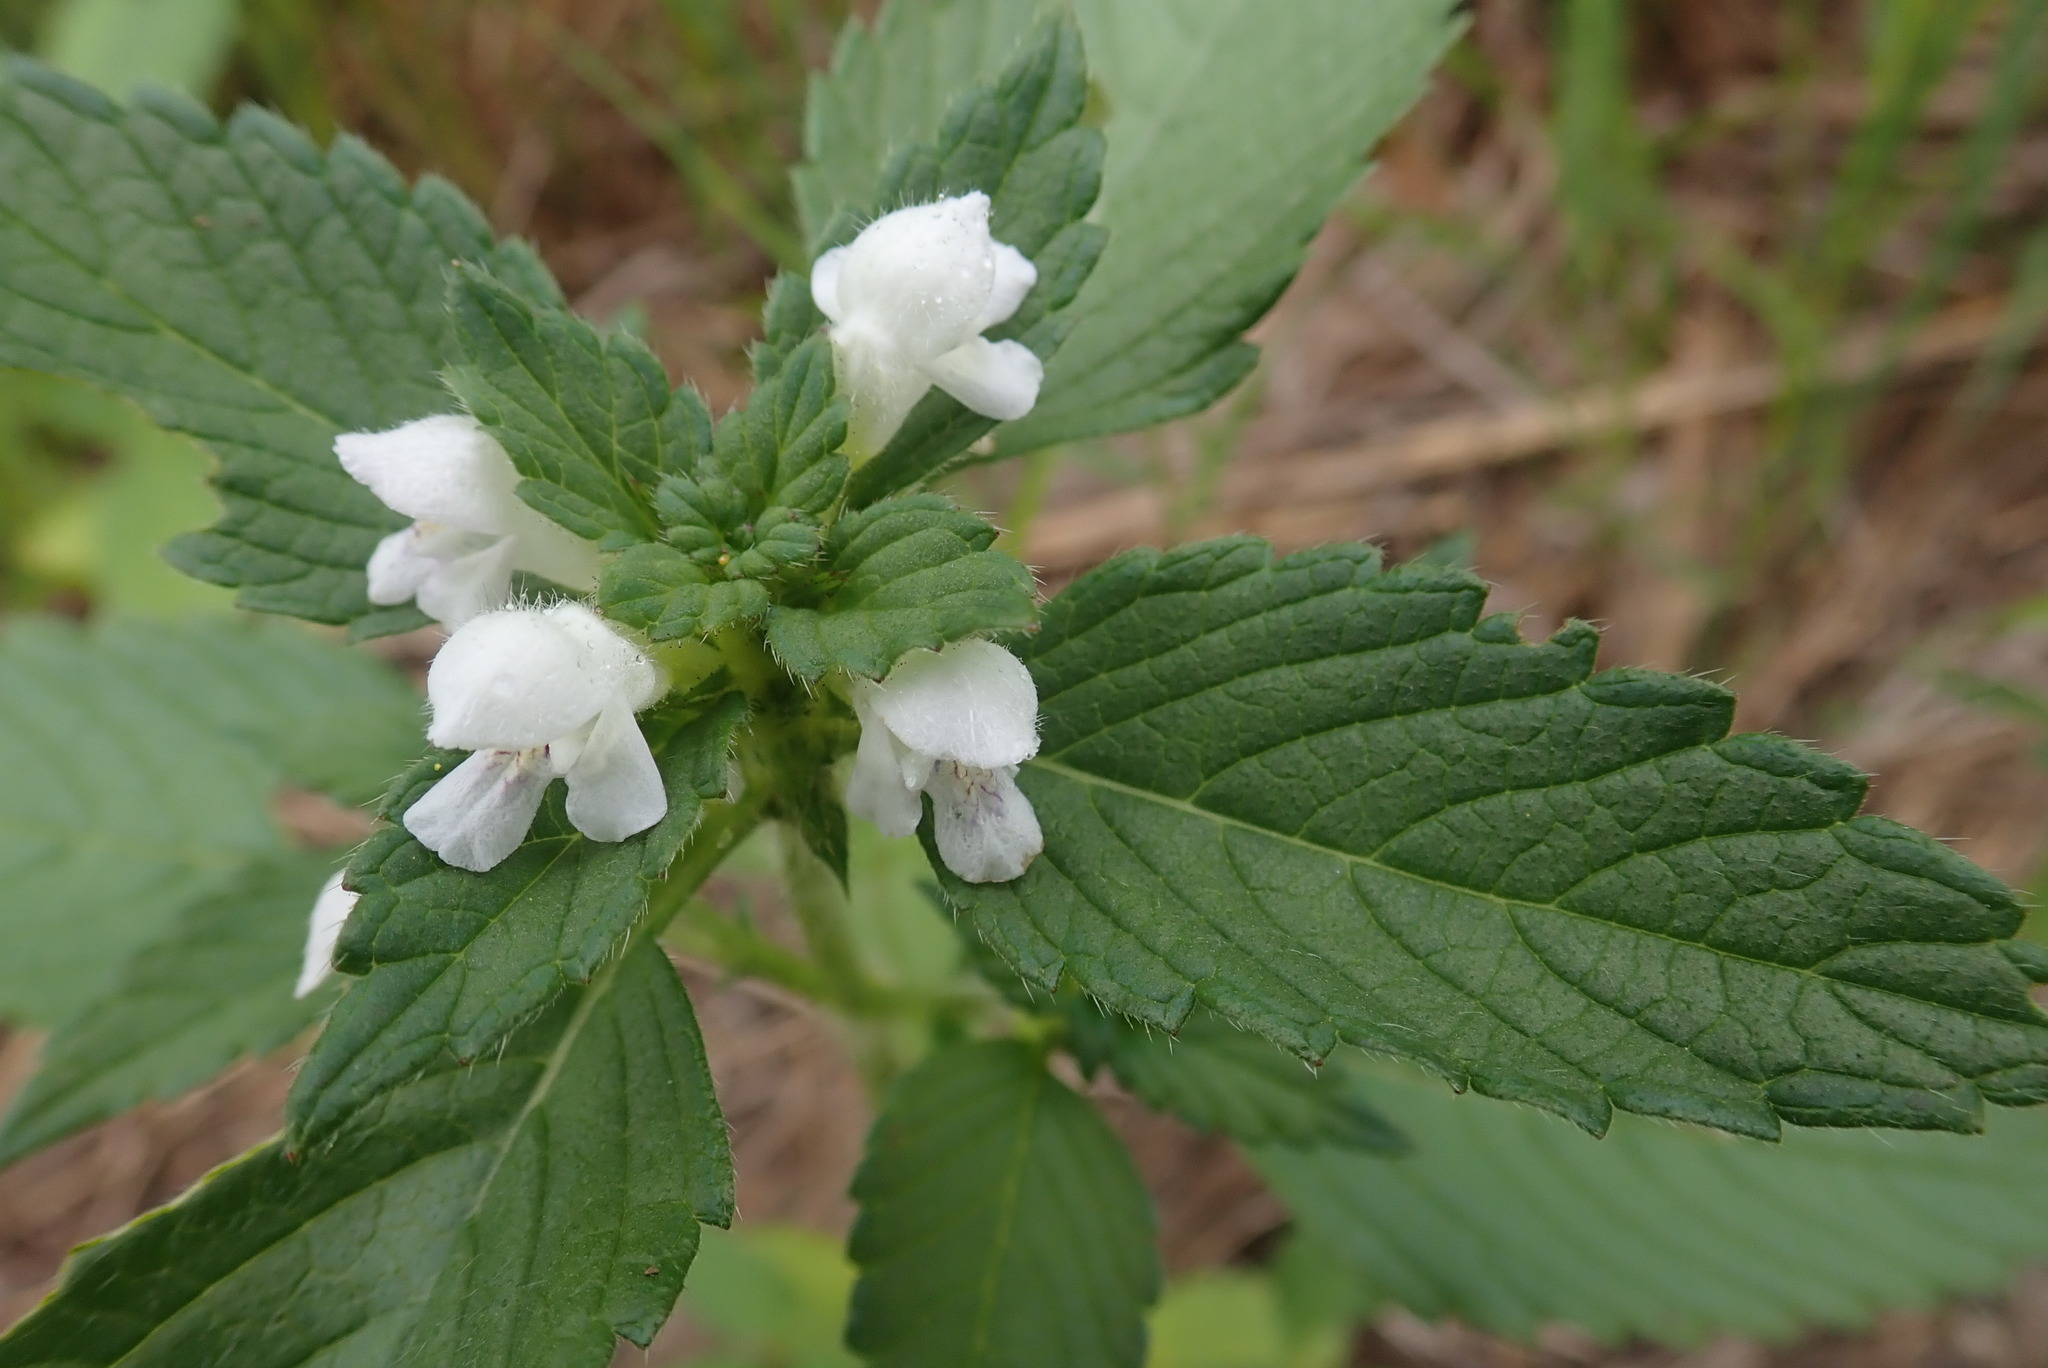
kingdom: Plantae
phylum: Tracheophyta
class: Magnoliopsida
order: Lamiales
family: Lamiaceae
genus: Galeopsis
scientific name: Galeopsis tetrahit
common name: Common hemp-nettle
